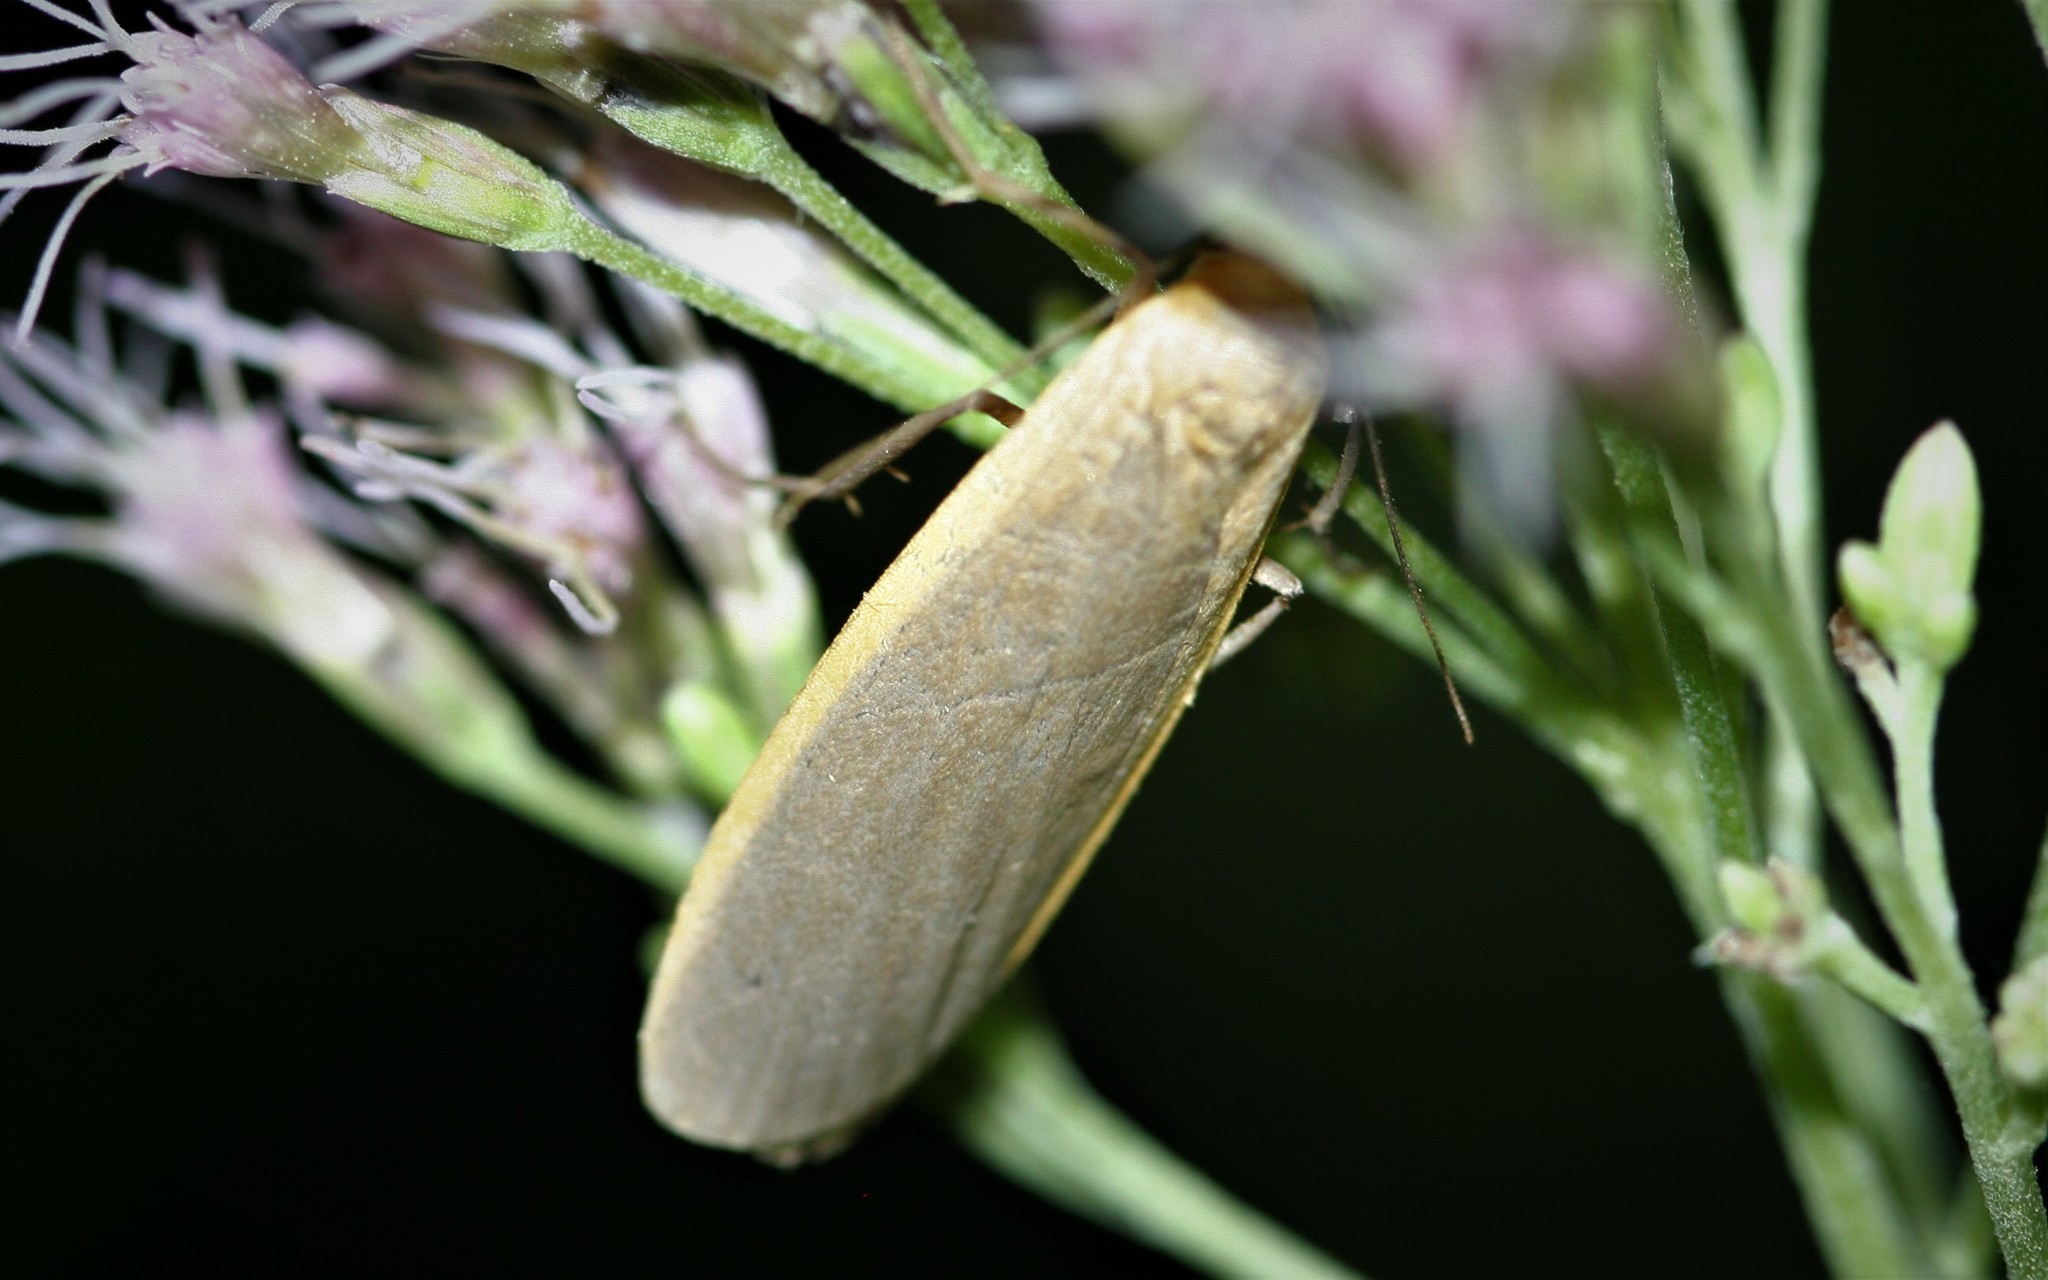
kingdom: Animalia
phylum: Arthropoda
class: Insecta
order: Lepidoptera
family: Erebidae
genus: Collita
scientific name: Collita griseola
